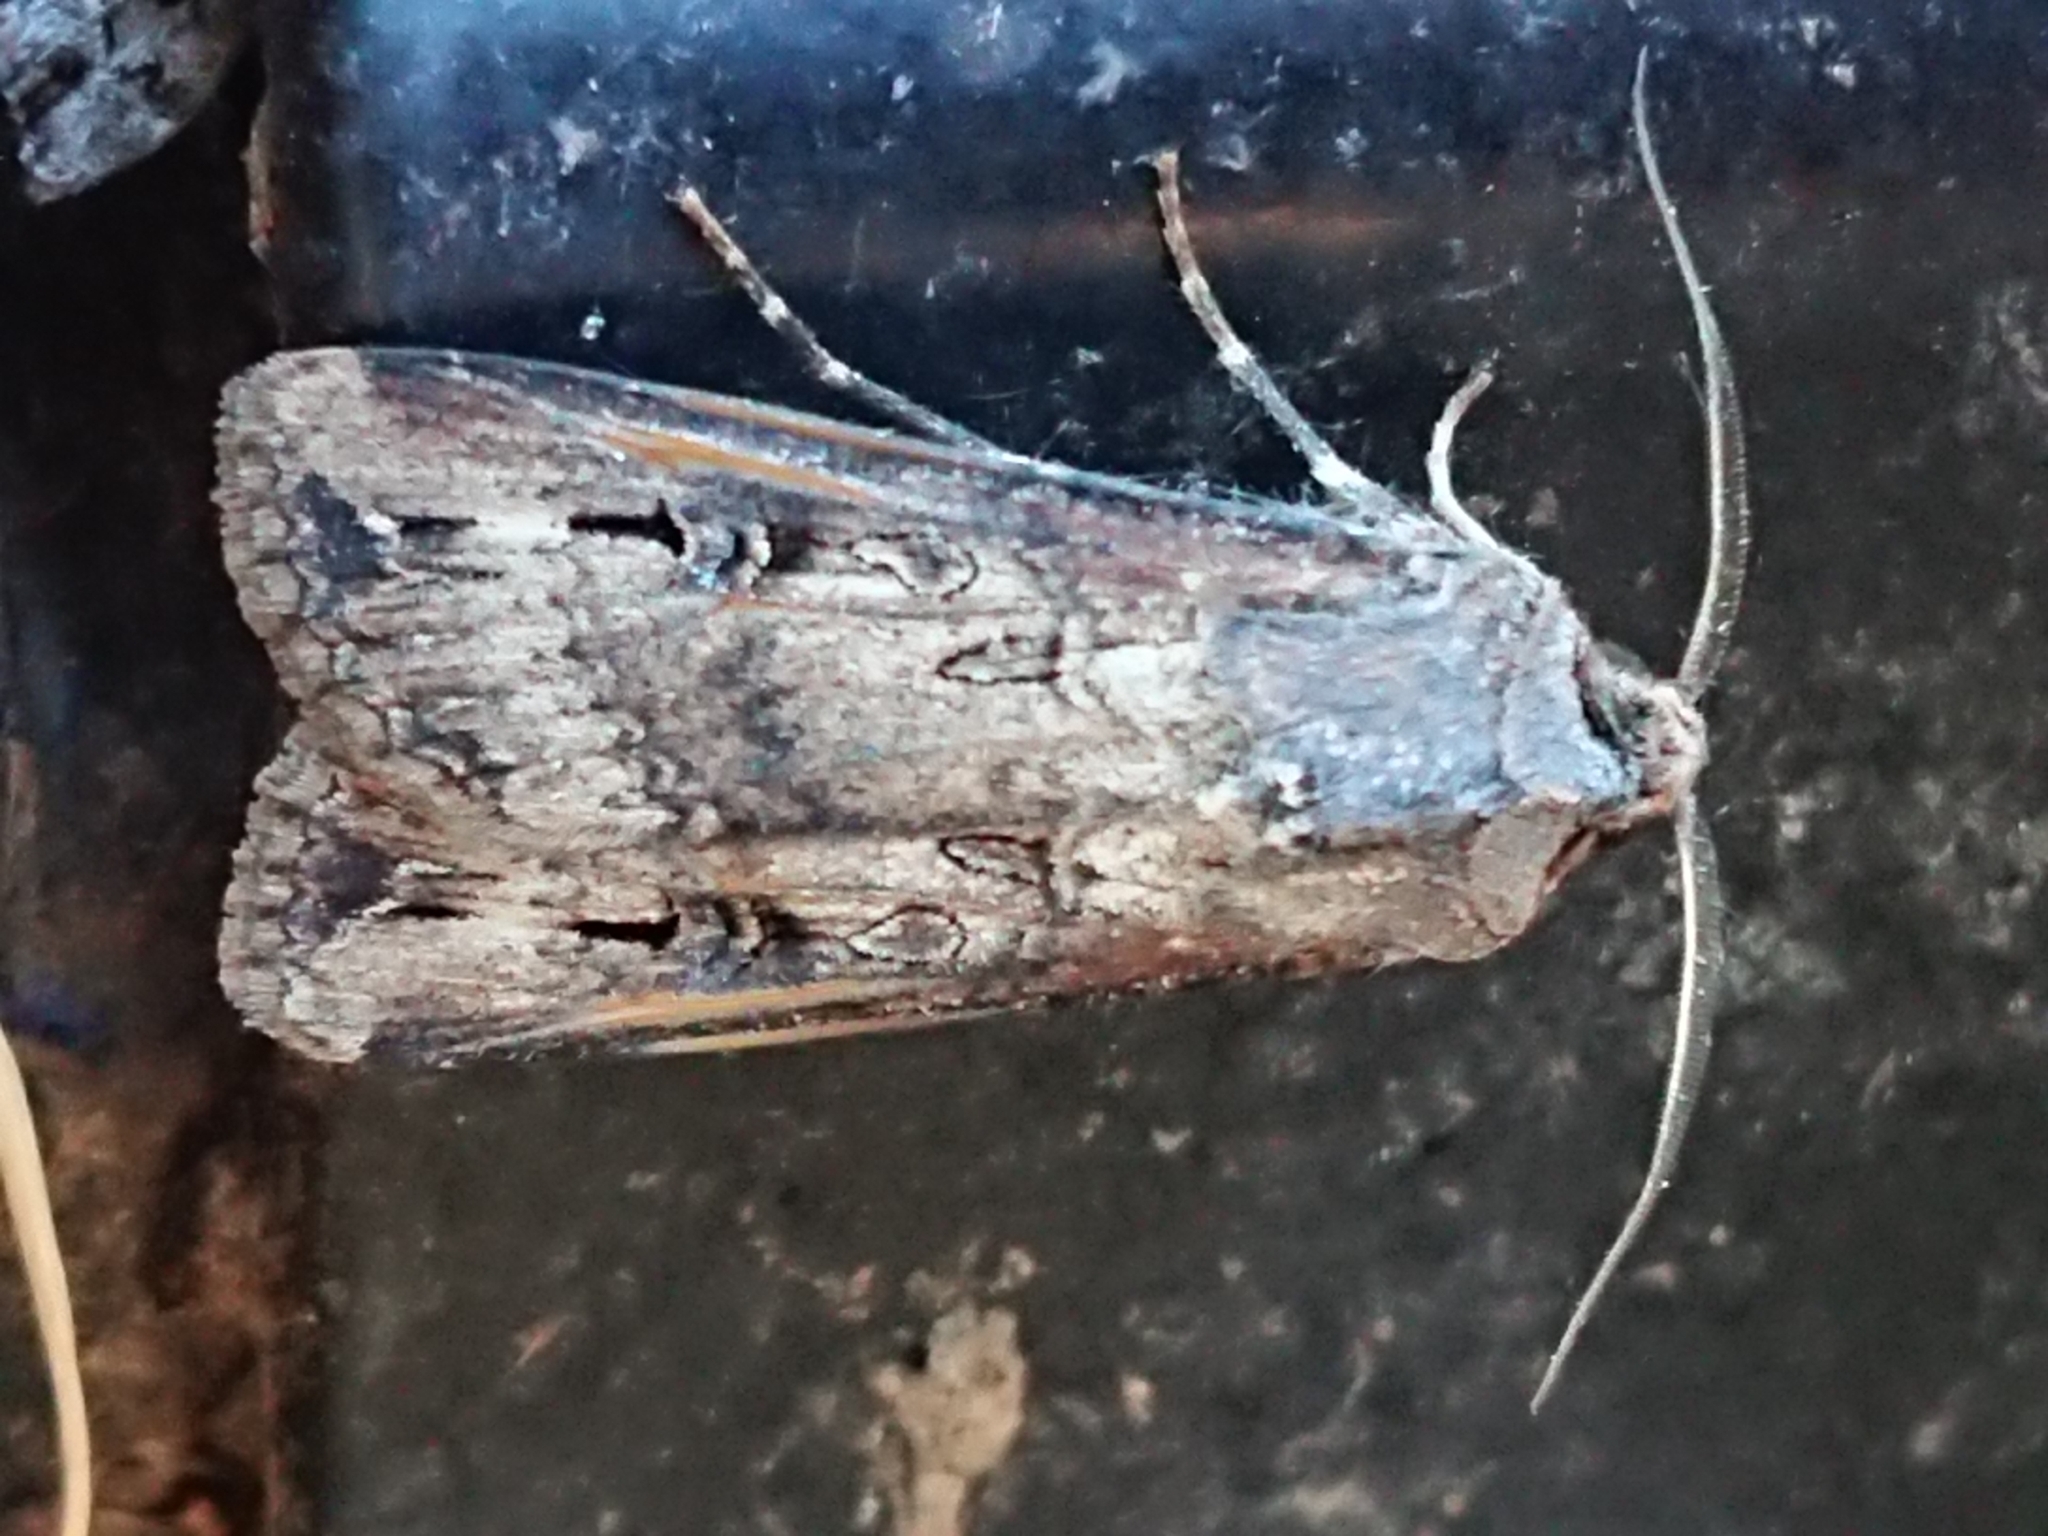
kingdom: Animalia
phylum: Arthropoda
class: Insecta
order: Lepidoptera
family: Noctuidae
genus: Agrotis
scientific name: Agrotis ipsilon
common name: Dark sword-grass
